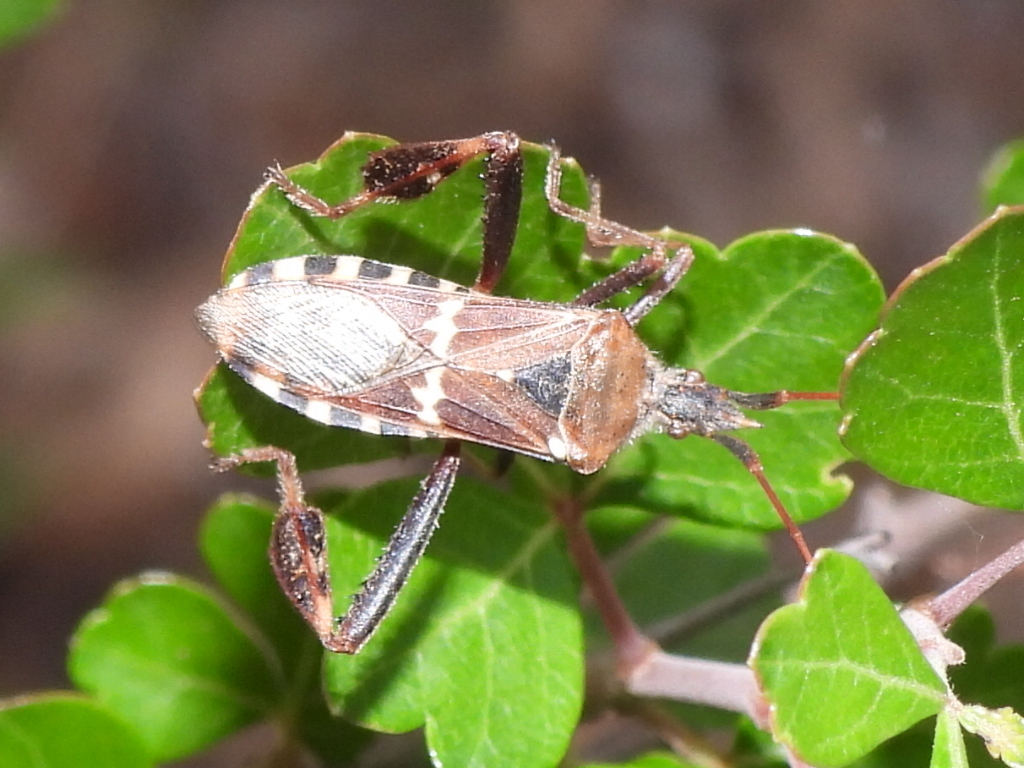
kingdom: Animalia
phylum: Arthropoda
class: Insecta
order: Hemiptera
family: Coreidae
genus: Leptoglossus
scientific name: Leptoglossus clypealis
